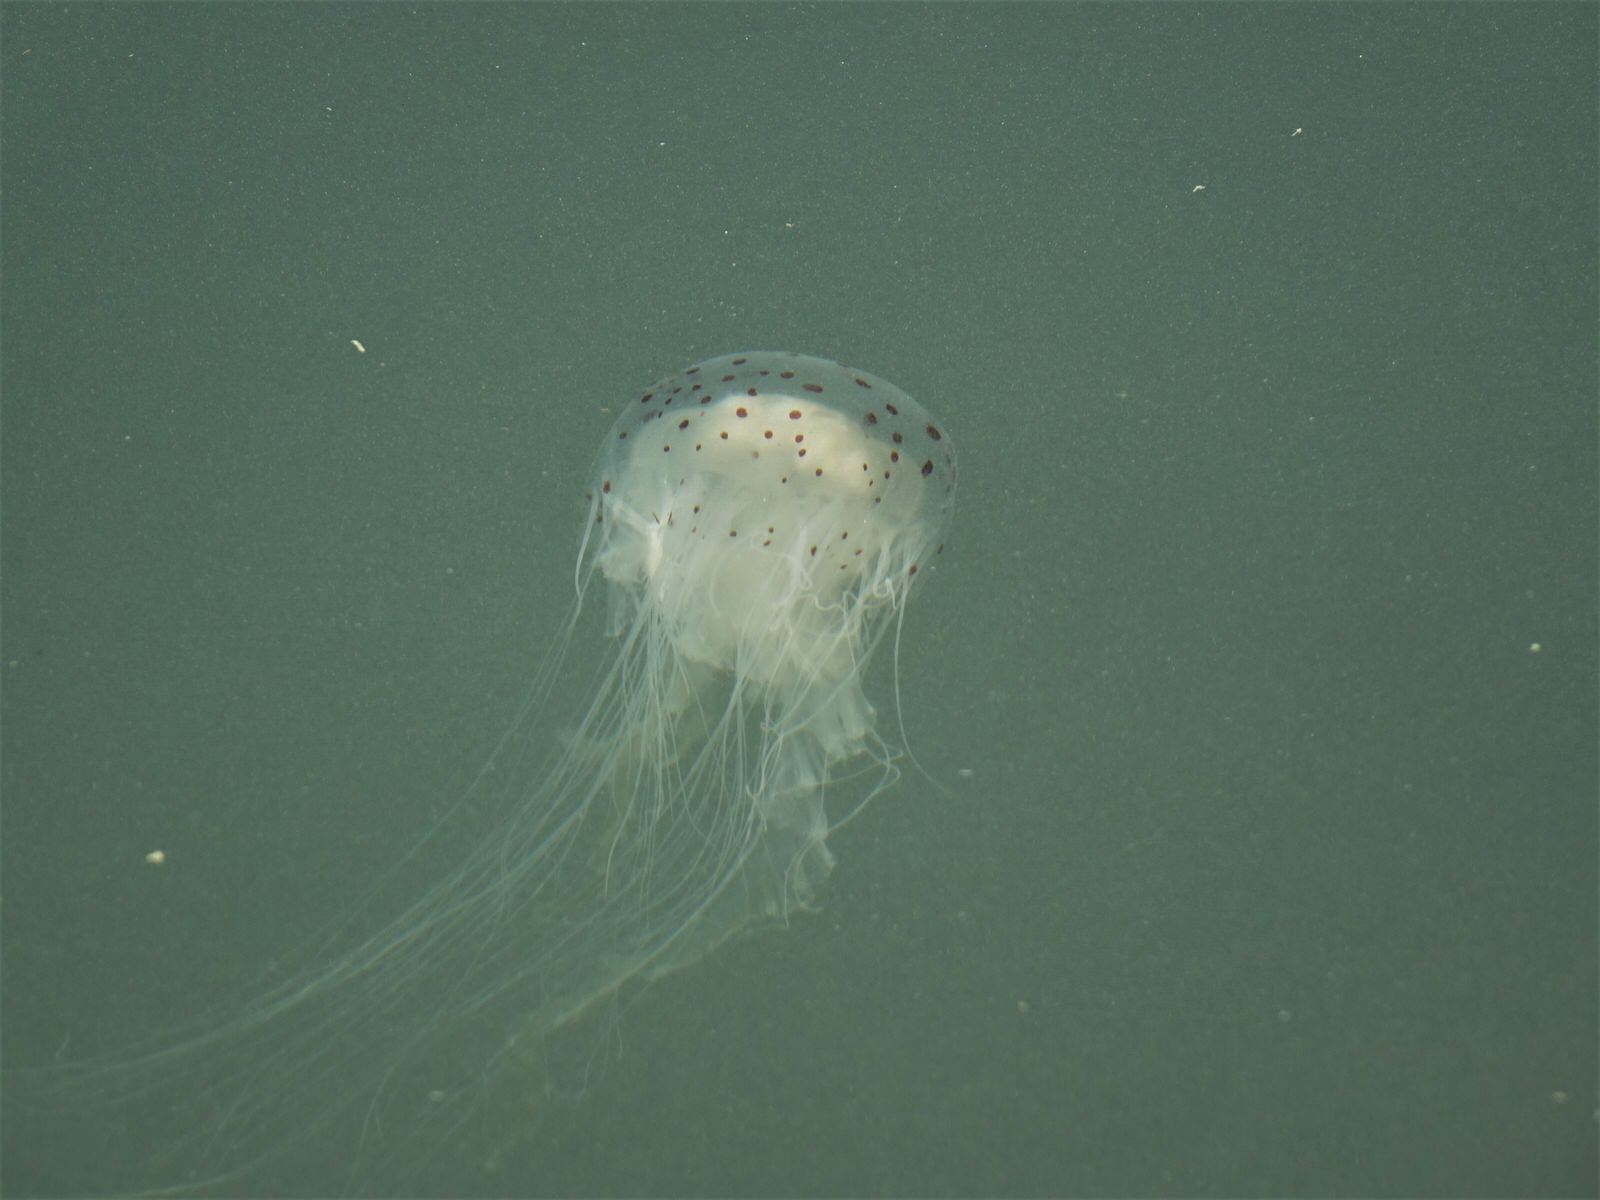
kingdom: Animalia
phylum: Cnidaria
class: Scyphozoa
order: Semaeostomeae
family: Cyaneidae
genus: Desmonema
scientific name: Desmonema gaudichaudi
